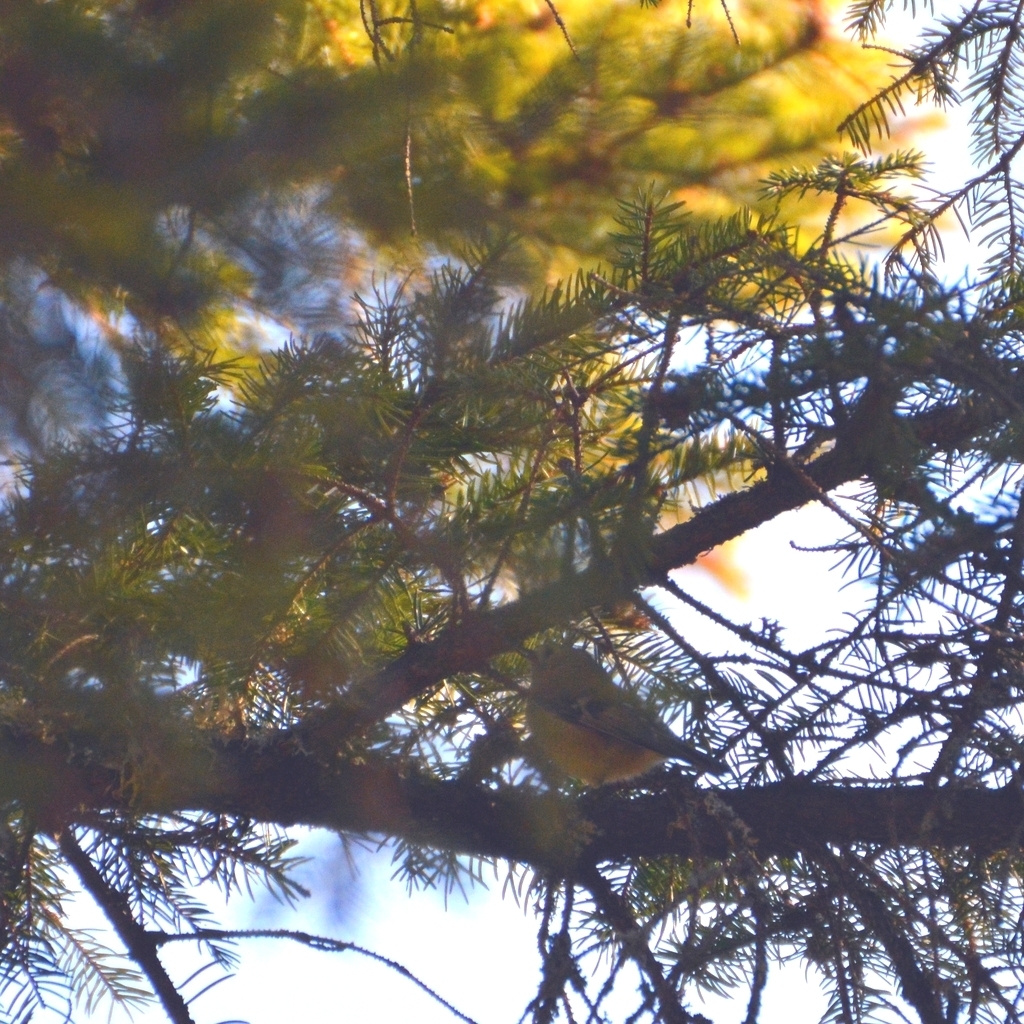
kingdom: Animalia
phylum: Chordata
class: Aves
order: Passeriformes
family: Regulidae
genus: Regulus
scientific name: Regulus regulus
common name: Goldcrest
